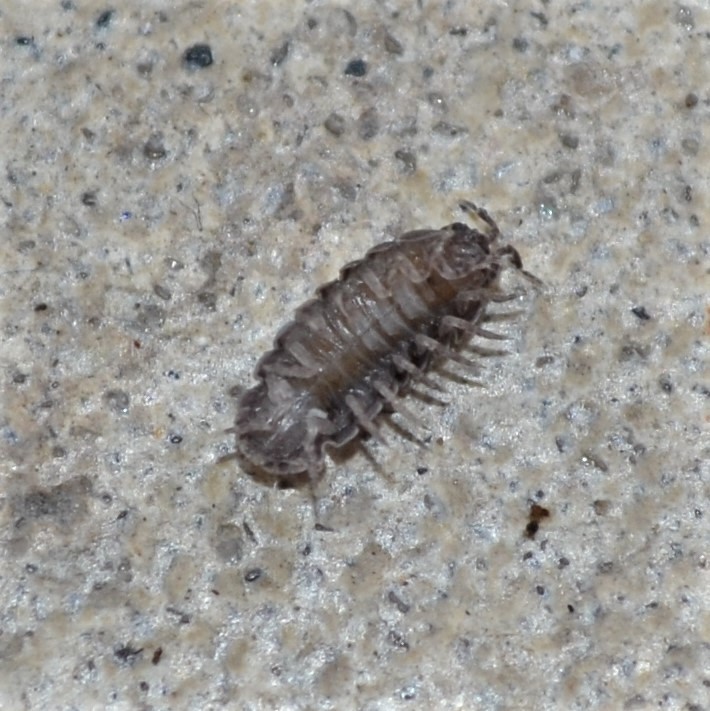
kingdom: Animalia
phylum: Arthropoda
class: Malacostraca
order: Isopoda
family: Armadillidiidae
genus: Armadillidium
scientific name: Armadillidium vulgare
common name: Common pill woodlouse
